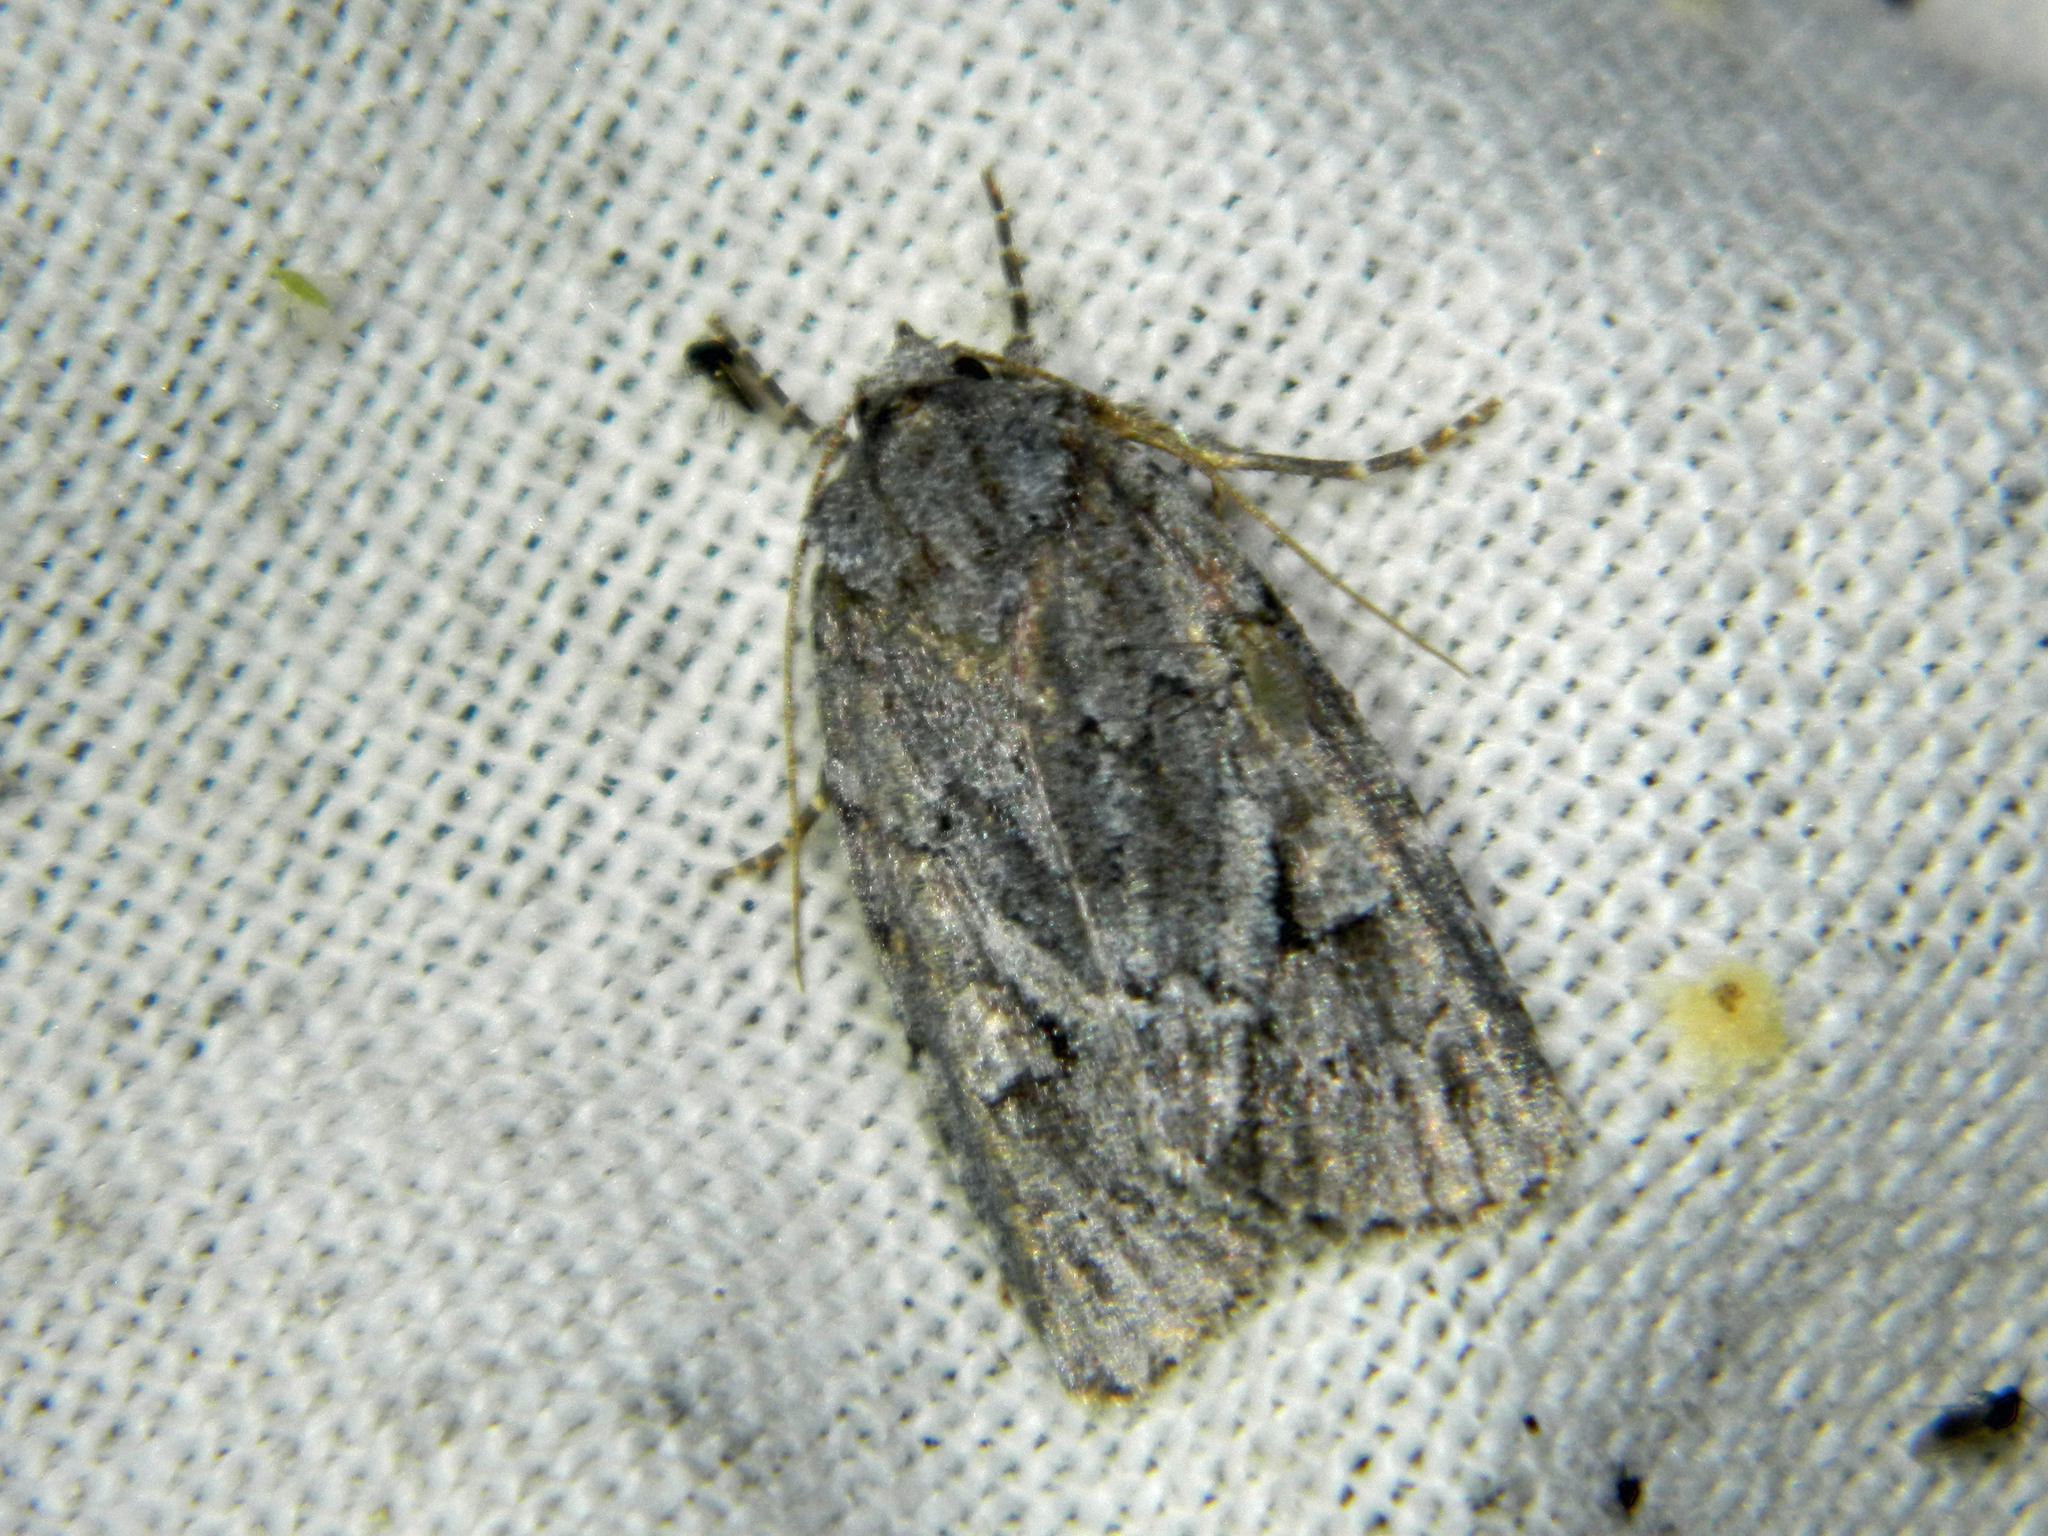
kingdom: Animalia
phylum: Arthropoda
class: Insecta
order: Lepidoptera
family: Noctuidae
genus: Sympistis
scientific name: Sympistis dentata
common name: Blueberry sallow
